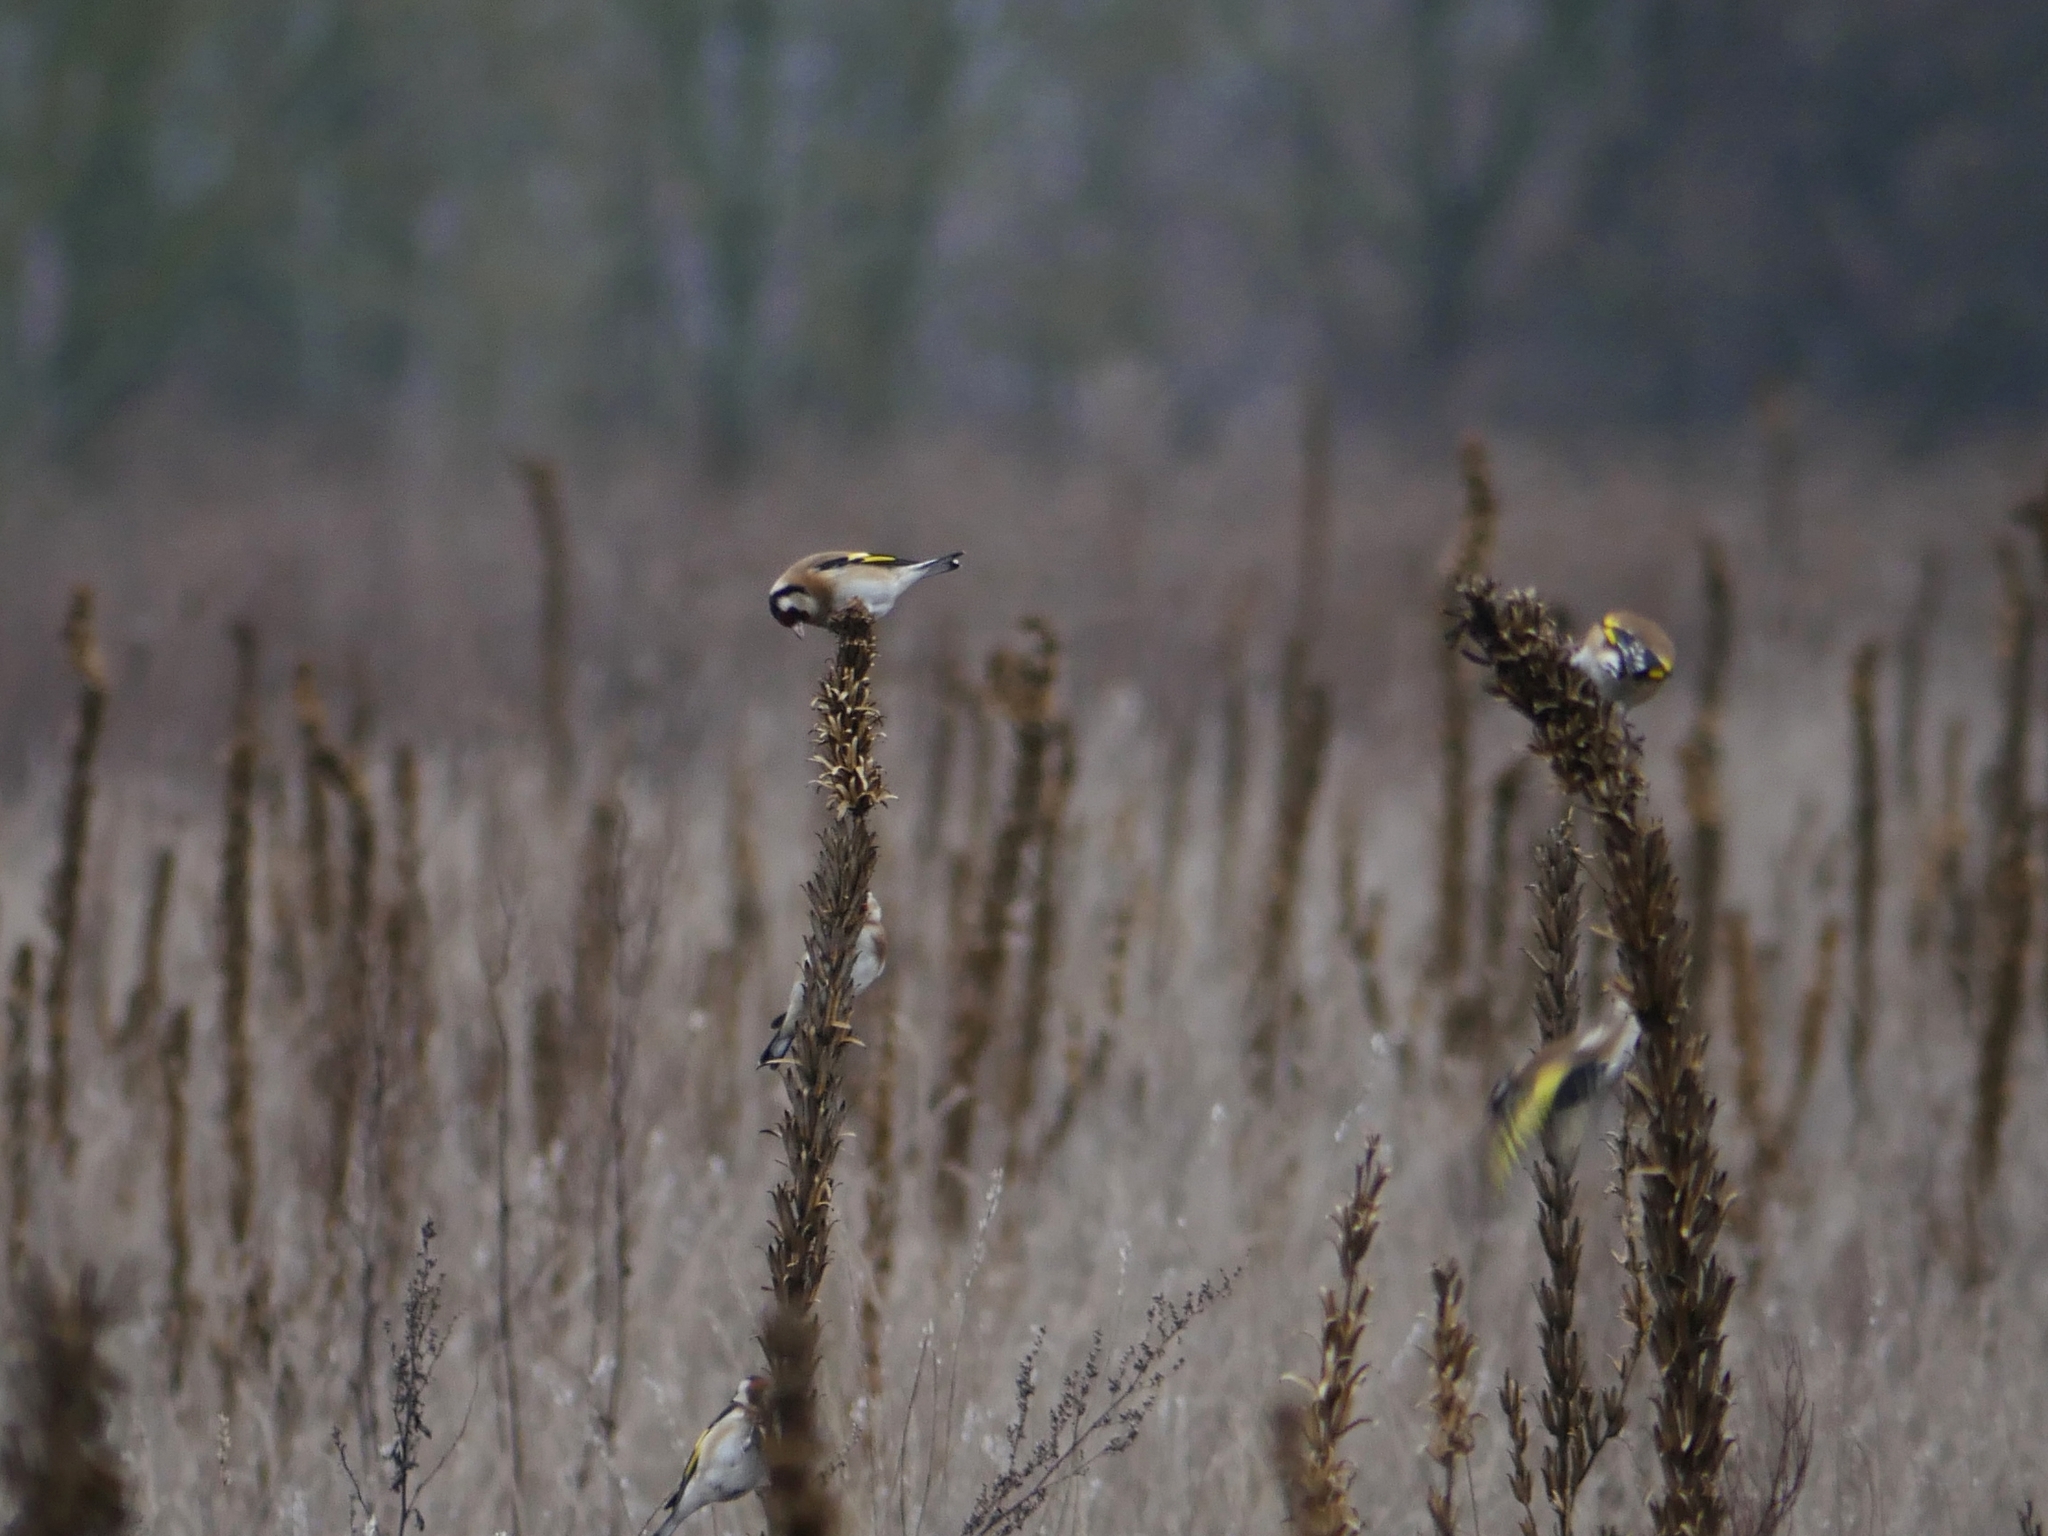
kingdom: Animalia
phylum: Chordata
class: Aves
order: Passeriformes
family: Fringillidae
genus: Carduelis
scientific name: Carduelis carduelis
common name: European goldfinch
